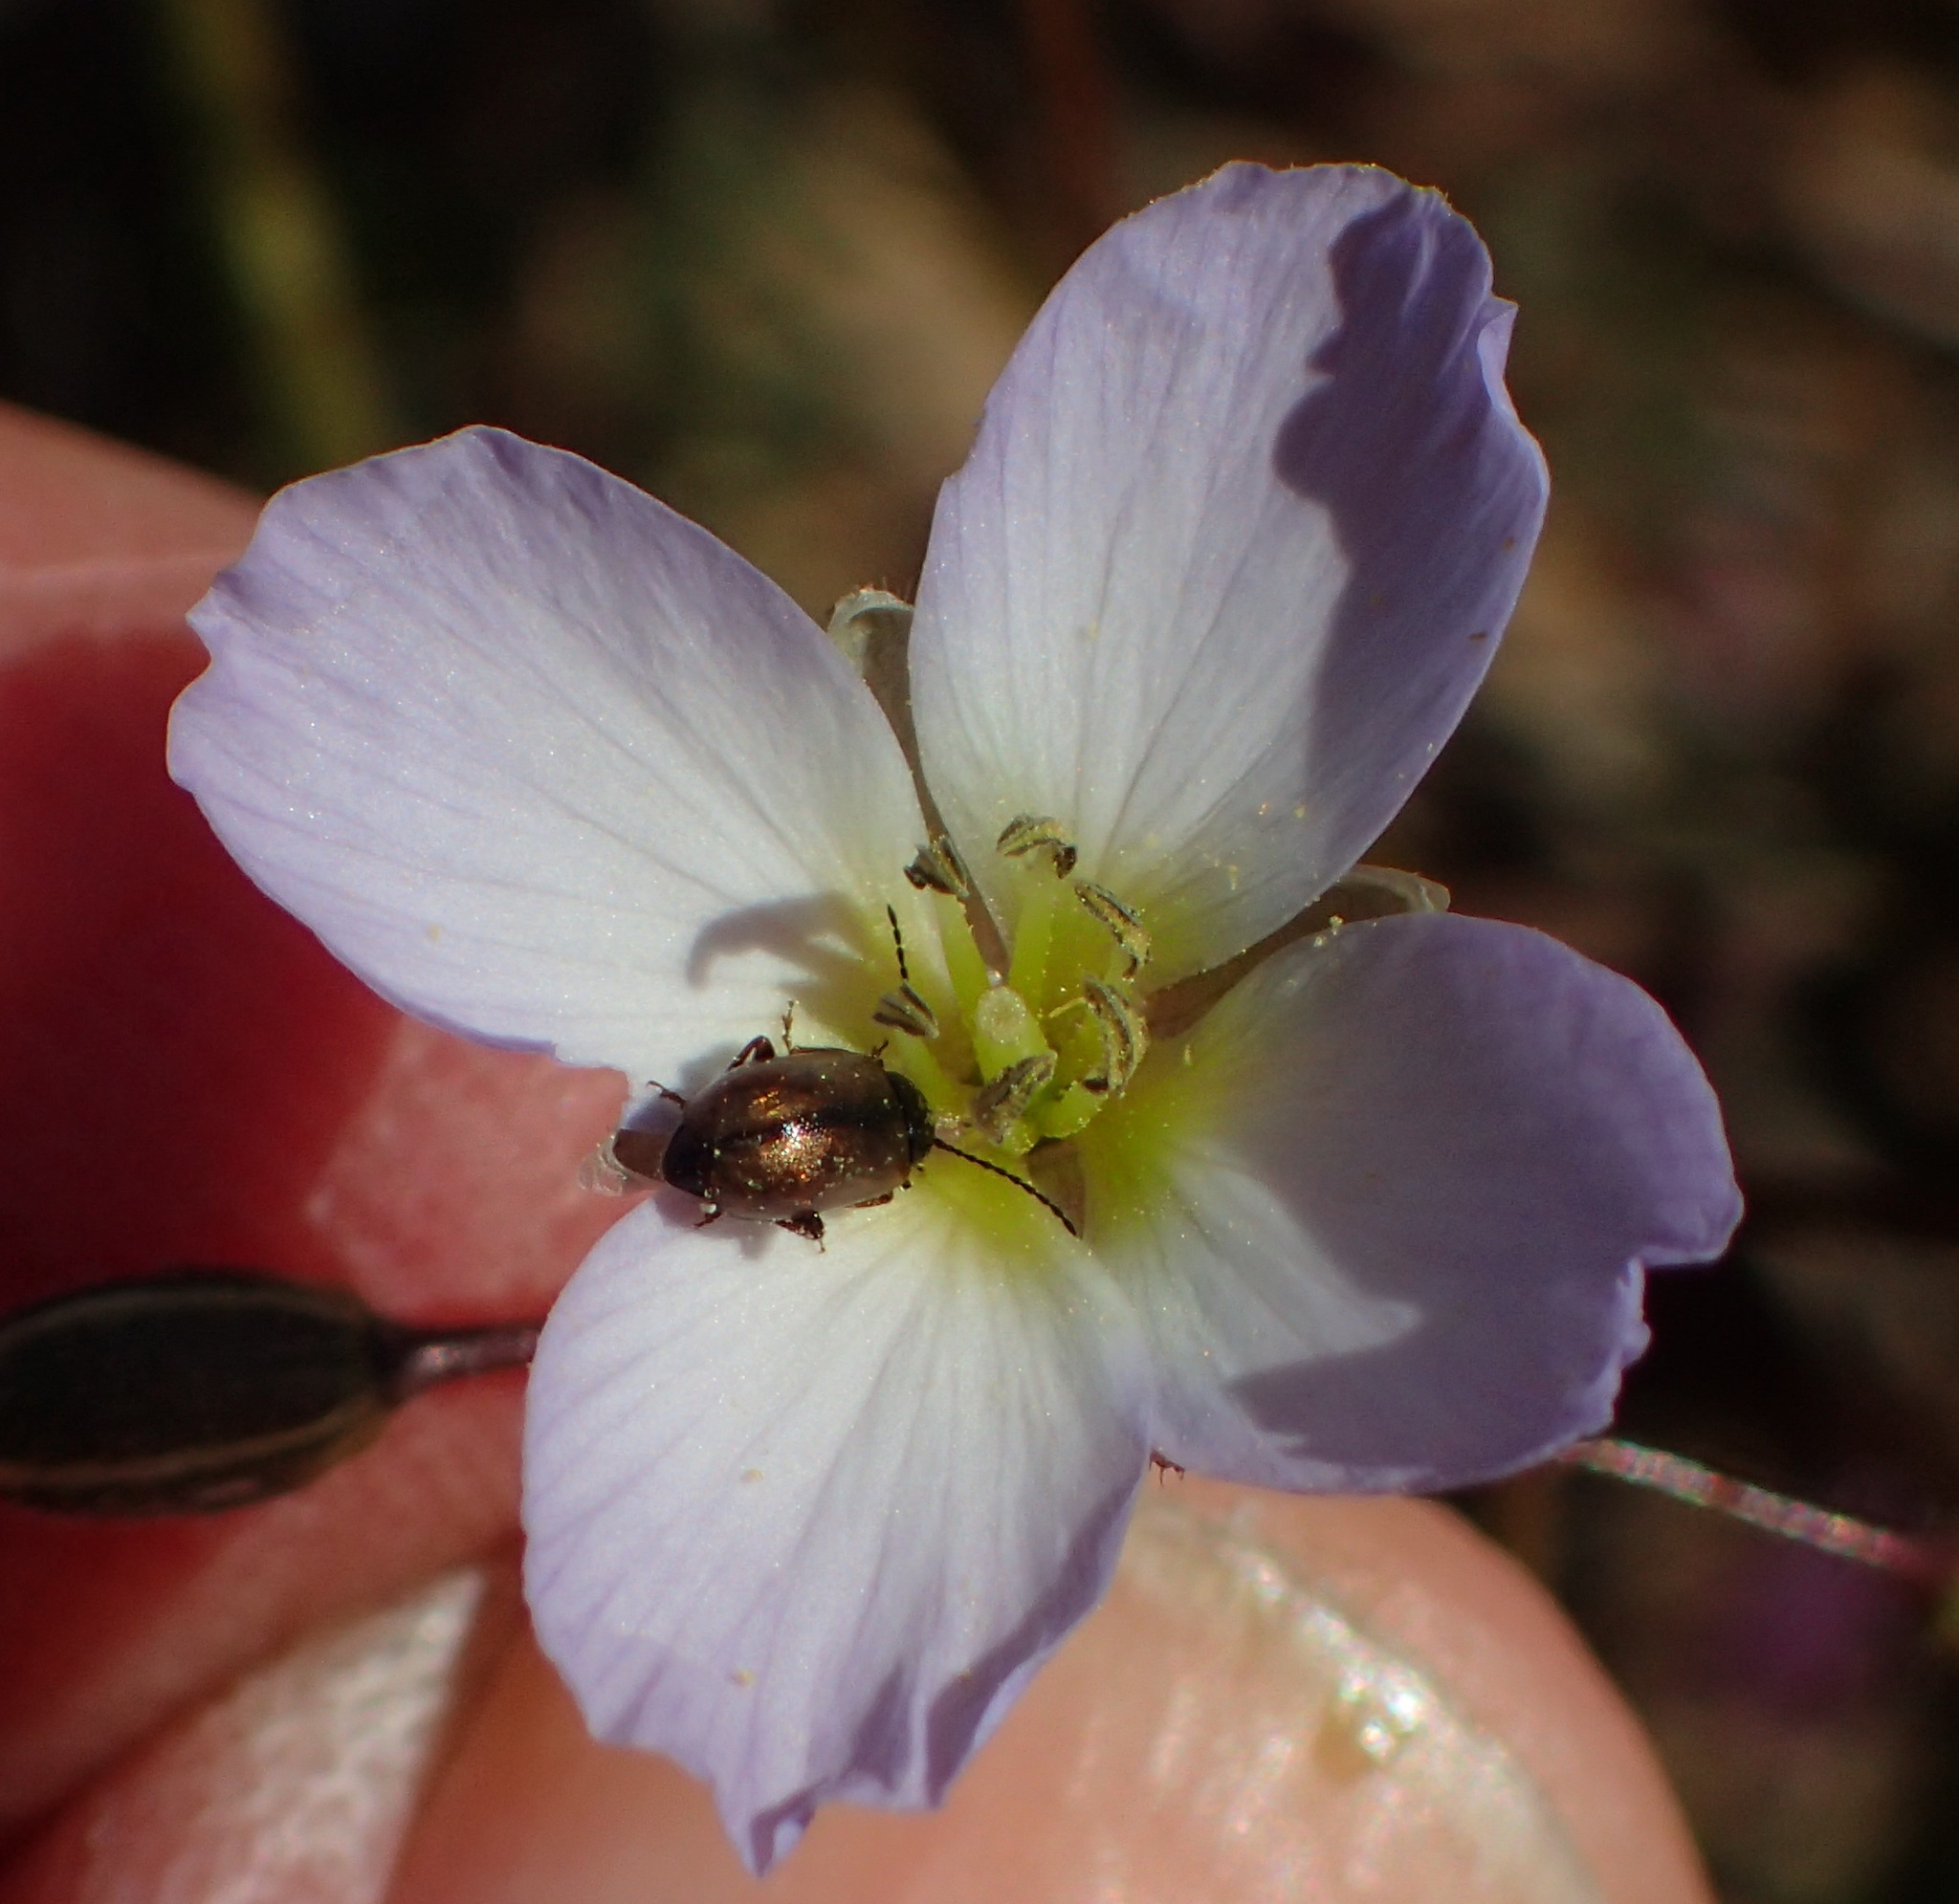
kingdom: Plantae
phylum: Tracheophyta
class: Magnoliopsida
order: Brassicales
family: Brassicaceae
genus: Heliophila
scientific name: Heliophila thunbergii
